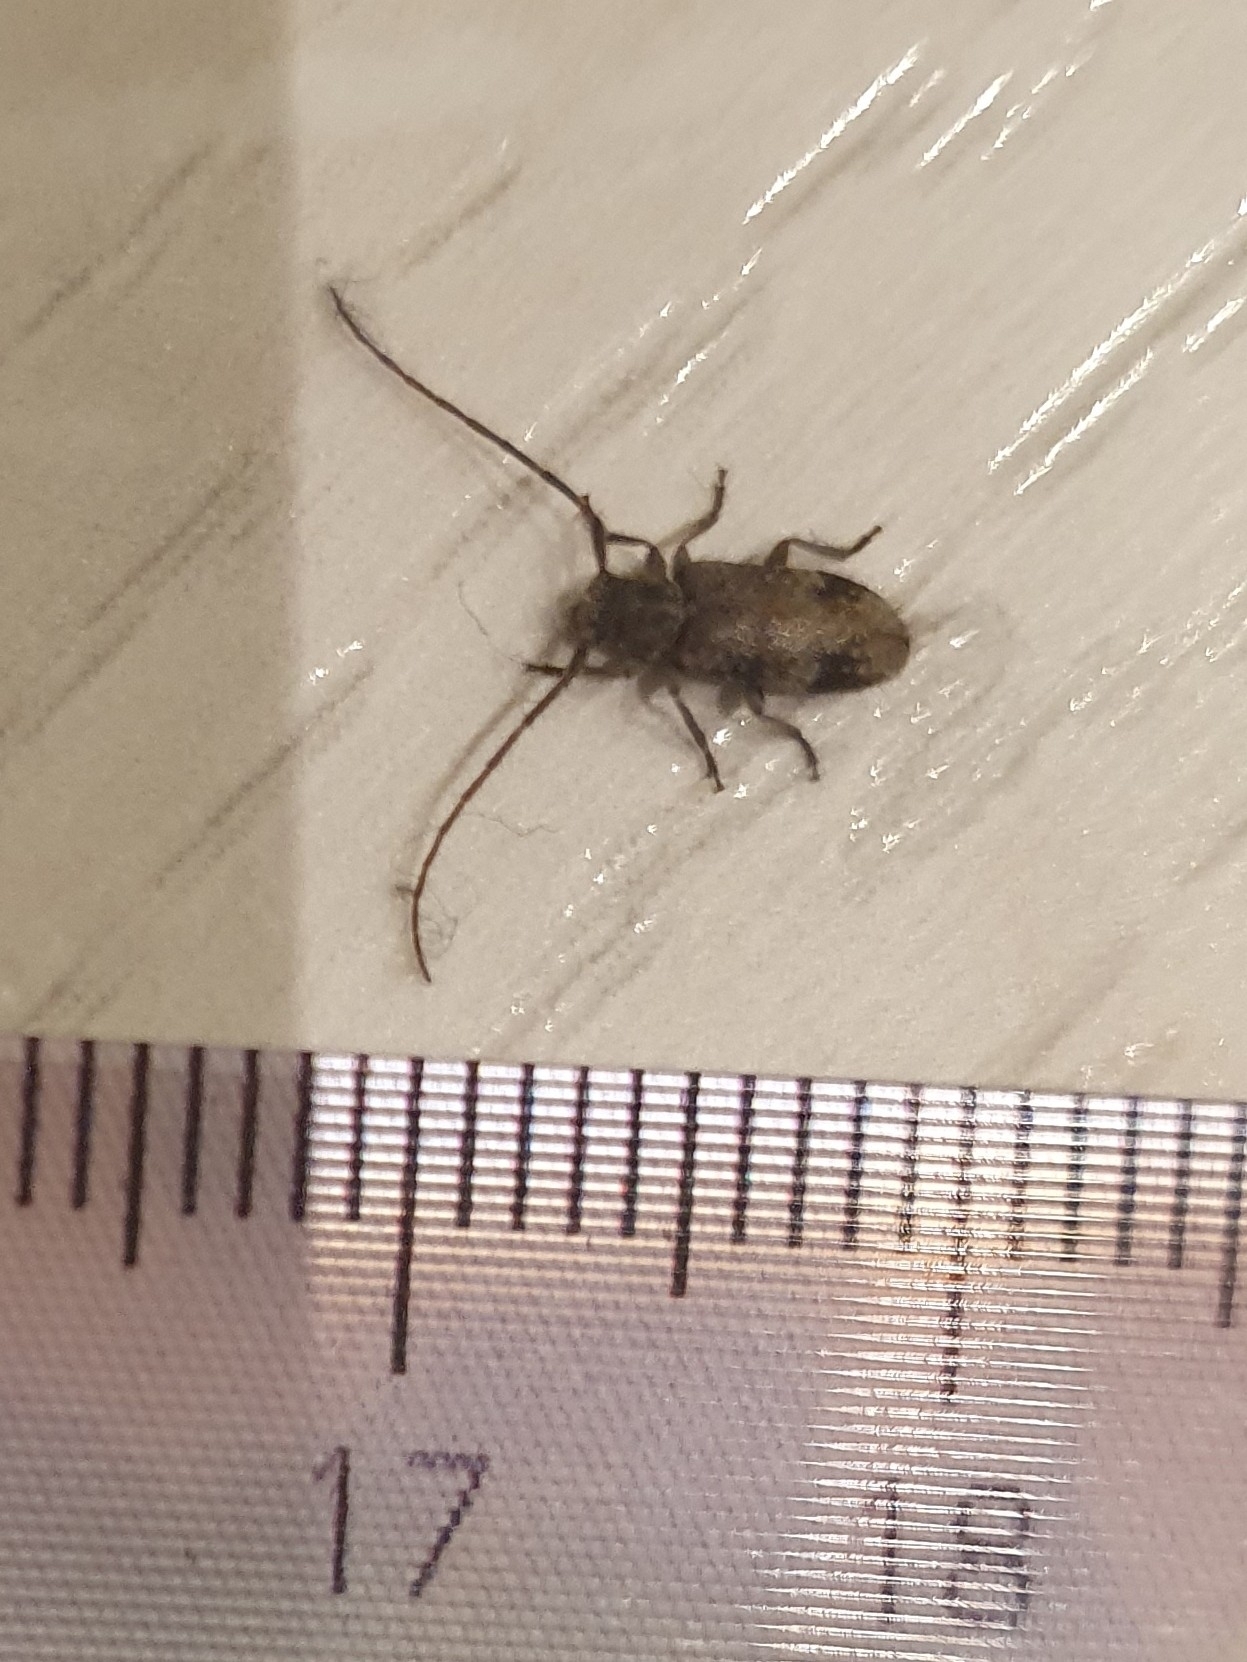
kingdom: Animalia
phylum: Arthropoda
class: Insecta
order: Coleoptera
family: Cerambycidae
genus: Exocentrus
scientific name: Exocentrus adspersus
